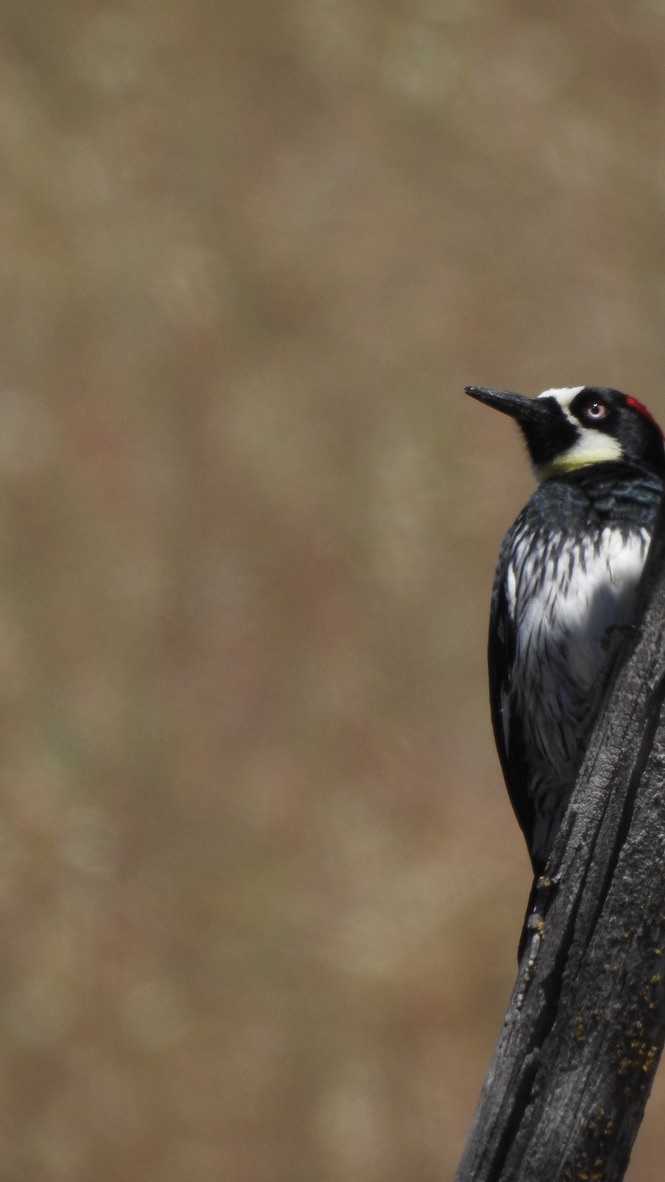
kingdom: Animalia
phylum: Chordata
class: Aves
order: Piciformes
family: Picidae
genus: Melanerpes
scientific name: Melanerpes formicivorus
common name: Acorn woodpecker
